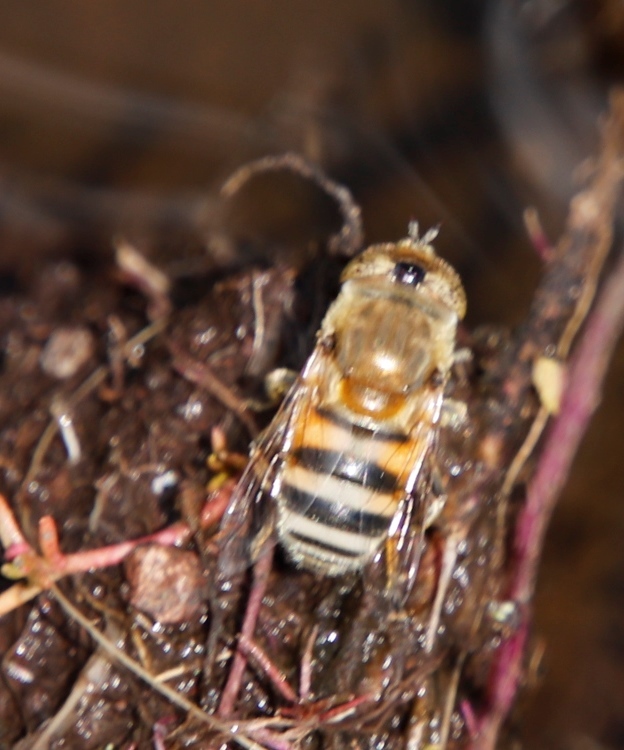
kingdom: Animalia
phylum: Arthropoda
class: Insecta
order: Diptera
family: Syrphidae
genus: Eristalinus
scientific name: Eristalinus euzonus
